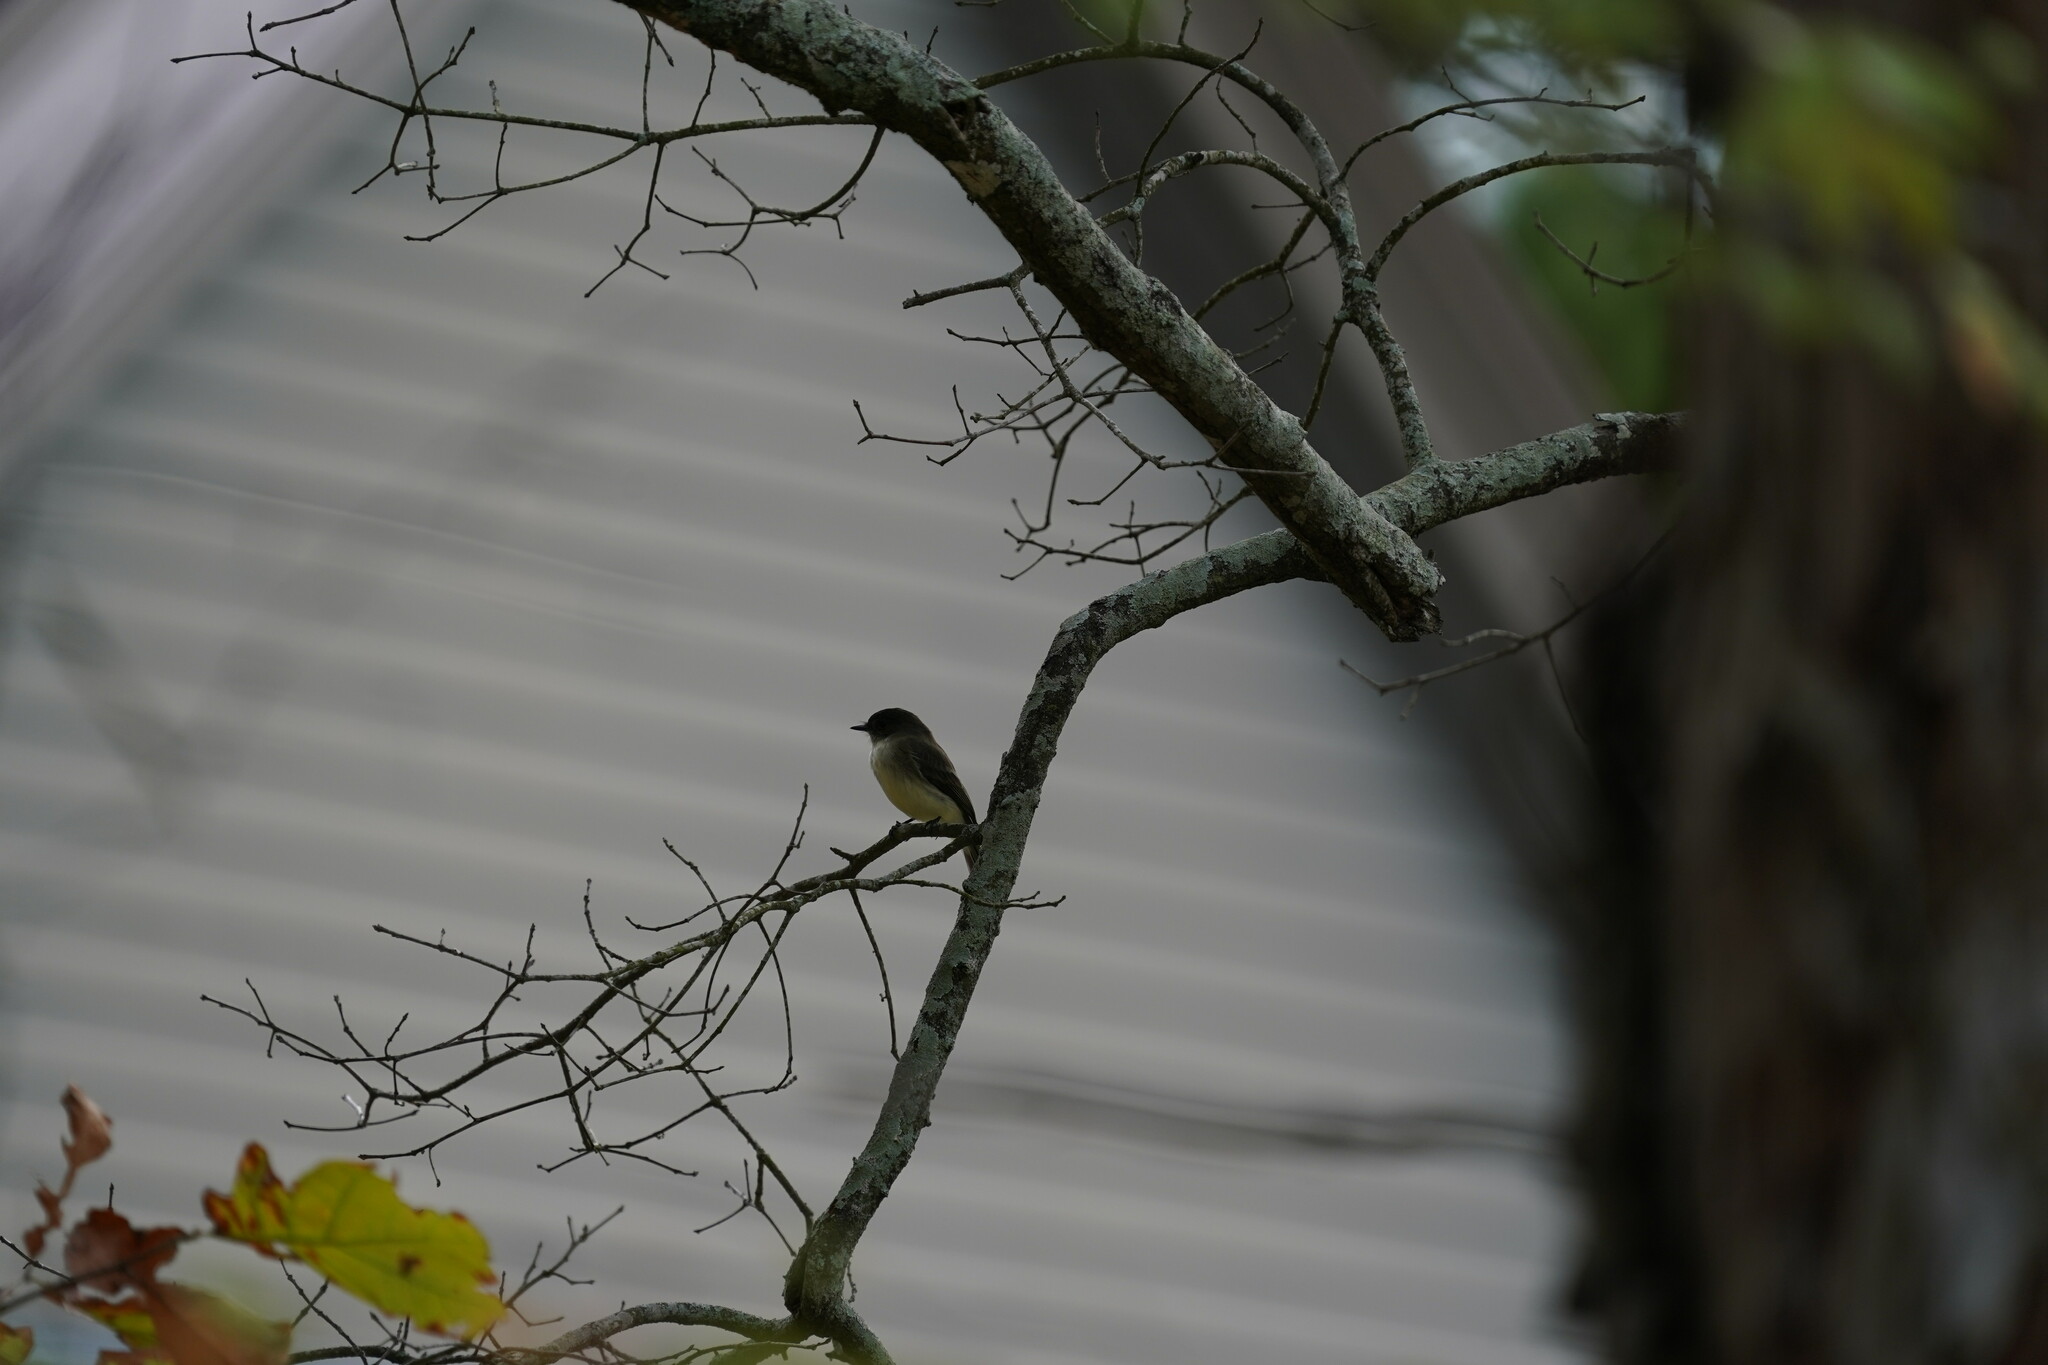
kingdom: Animalia
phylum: Chordata
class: Aves
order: Passeriformes
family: Tyrannidae
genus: Sayornis
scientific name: Sayornis phoebe
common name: Eastern phoebe
